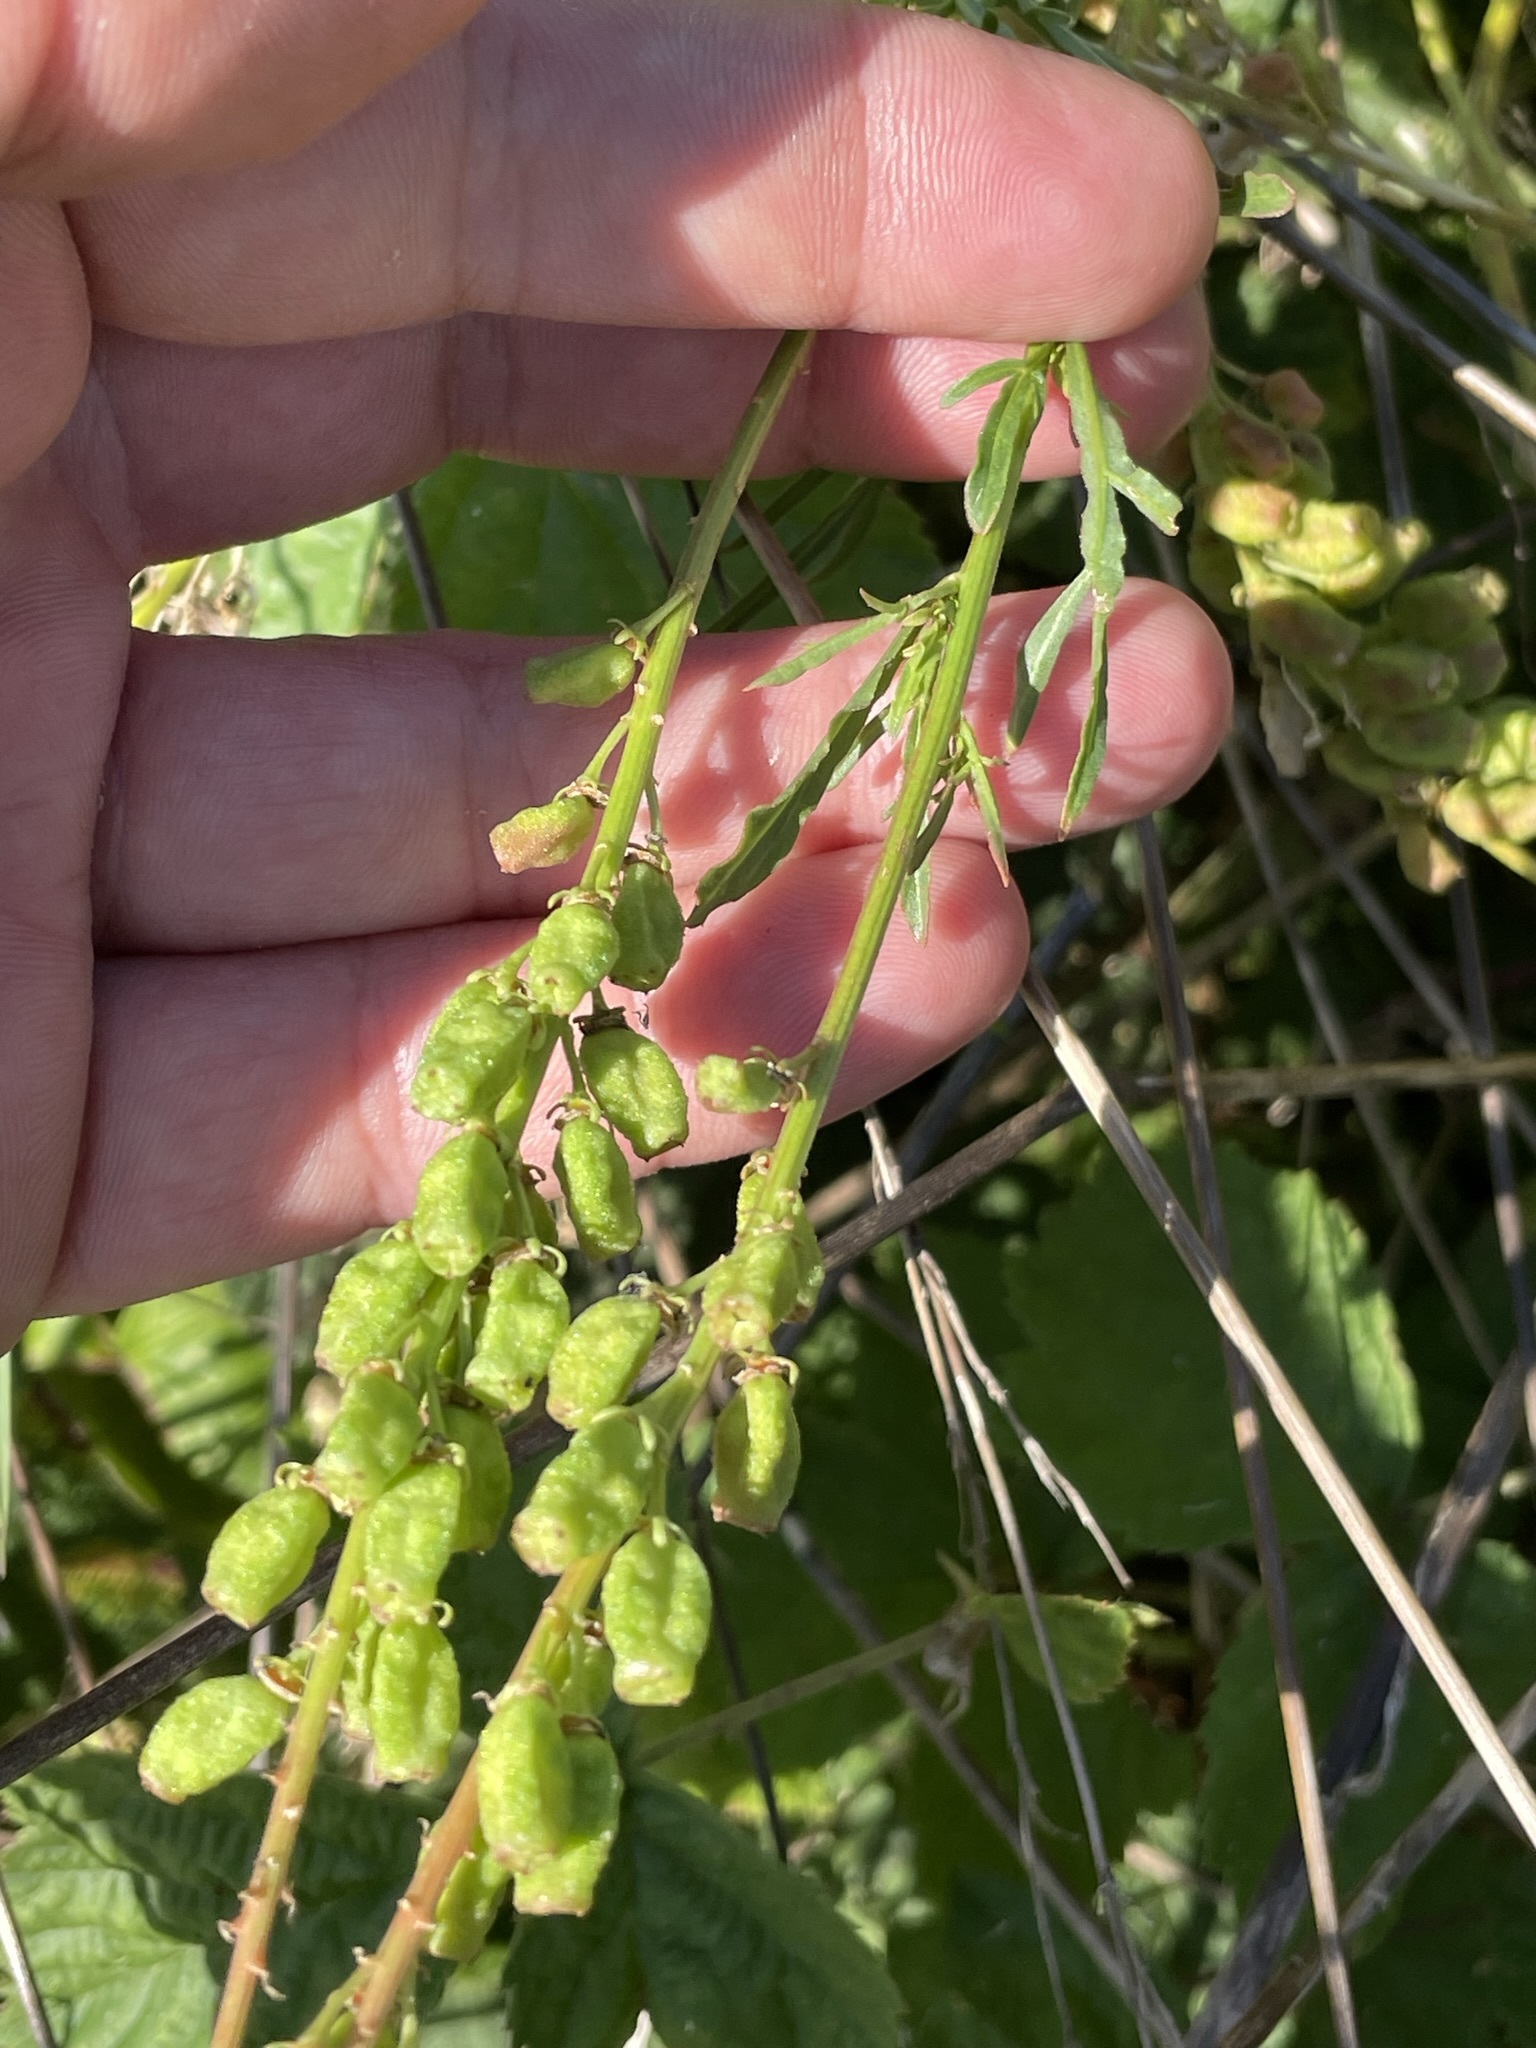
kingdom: Plantae
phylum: Tracheophyta
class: Magnoliopsida
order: Brassicales
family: Resedaceae
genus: Reseda
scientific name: Reseda lutea
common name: Wild mignonette
